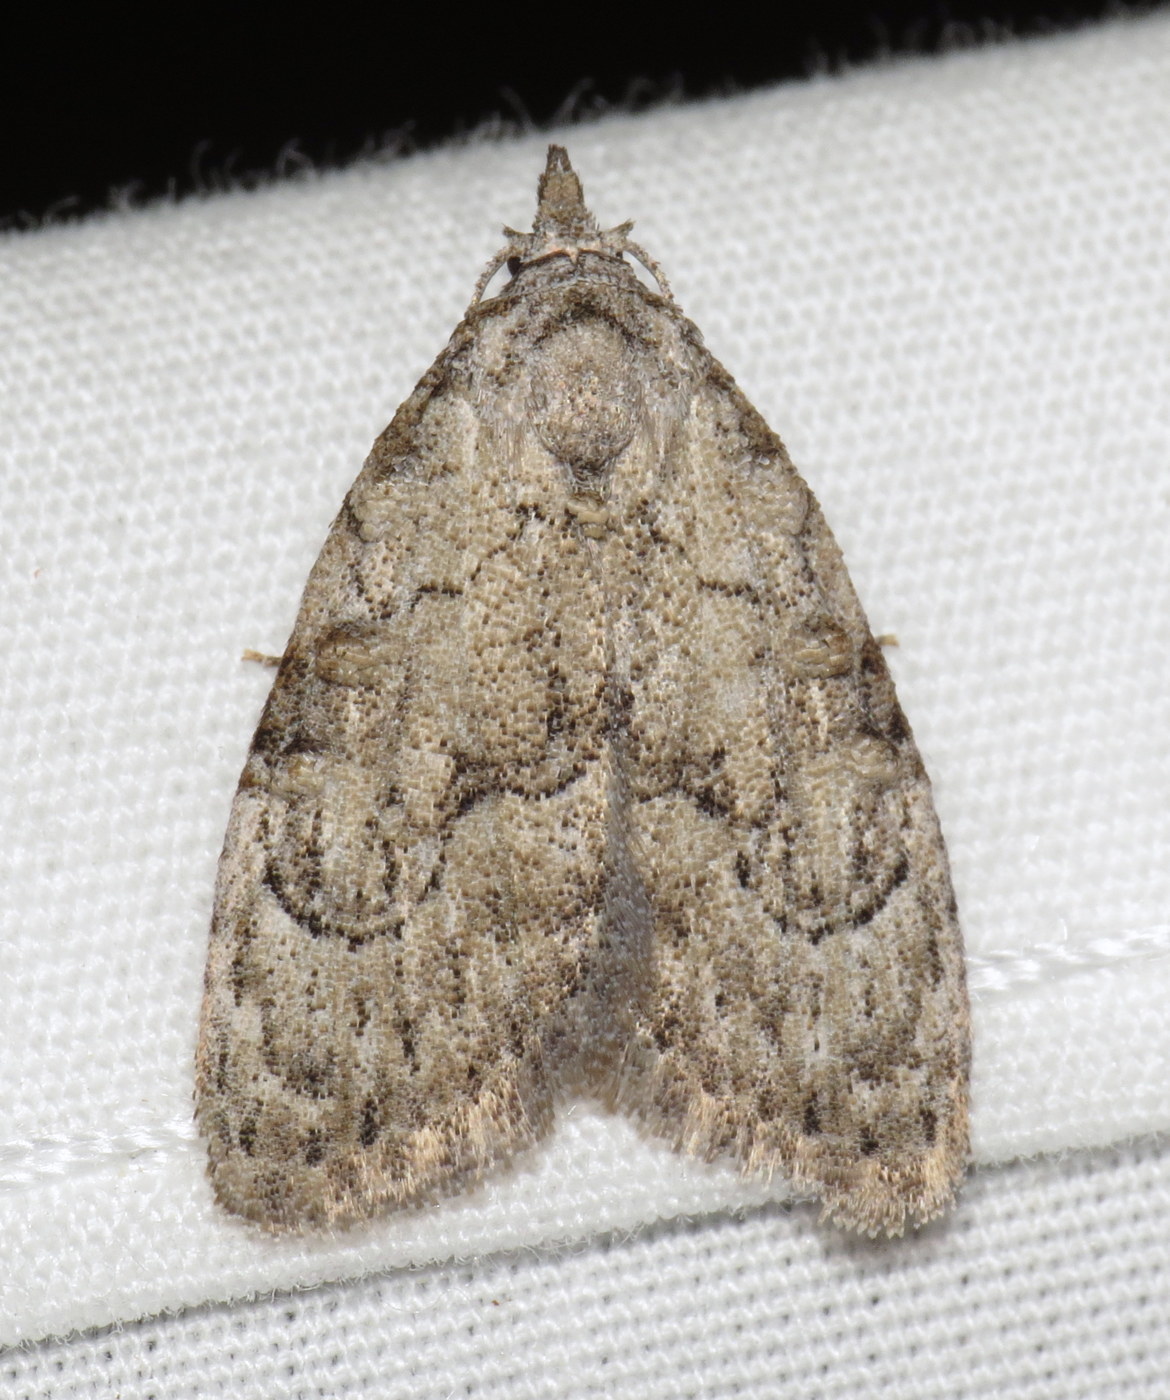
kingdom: Animalia
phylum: Arthropoda
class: Insecta
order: Lepidoptera
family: Nolidae
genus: Meganola
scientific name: Meganola spodia
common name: Ashy meganola moth
